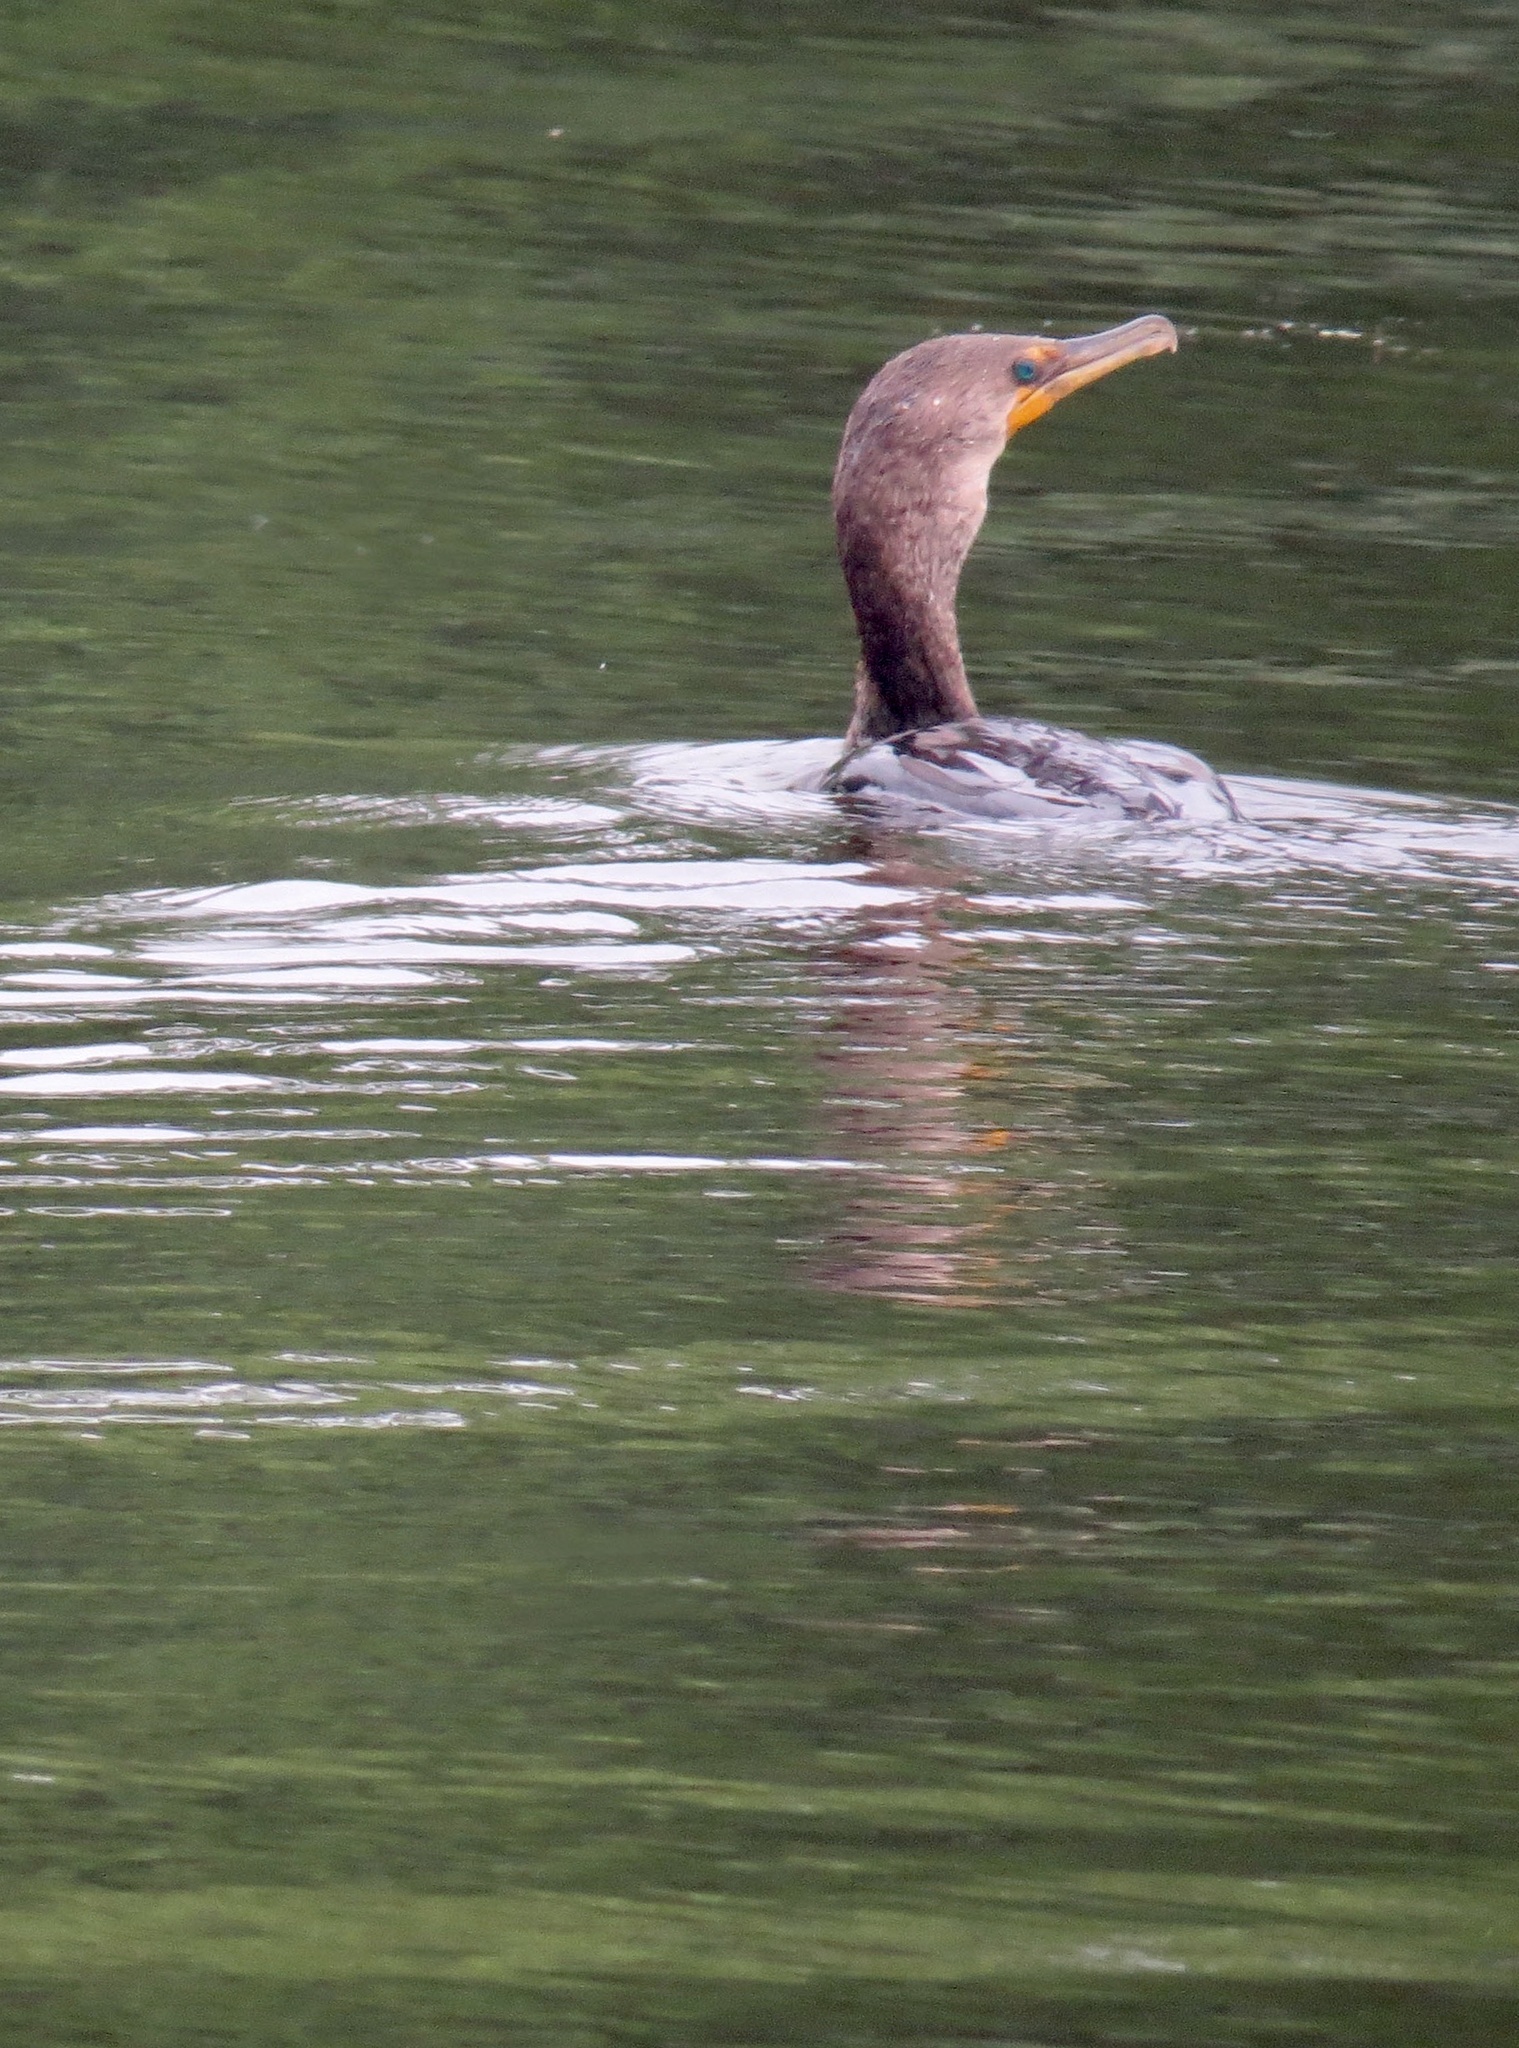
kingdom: Animalia
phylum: Chordata
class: Aves
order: Suliformes
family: Phalacrocoracidae
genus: Phalacrocorax
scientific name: Phalacrocorax auritus
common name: Double-crested cormorant
